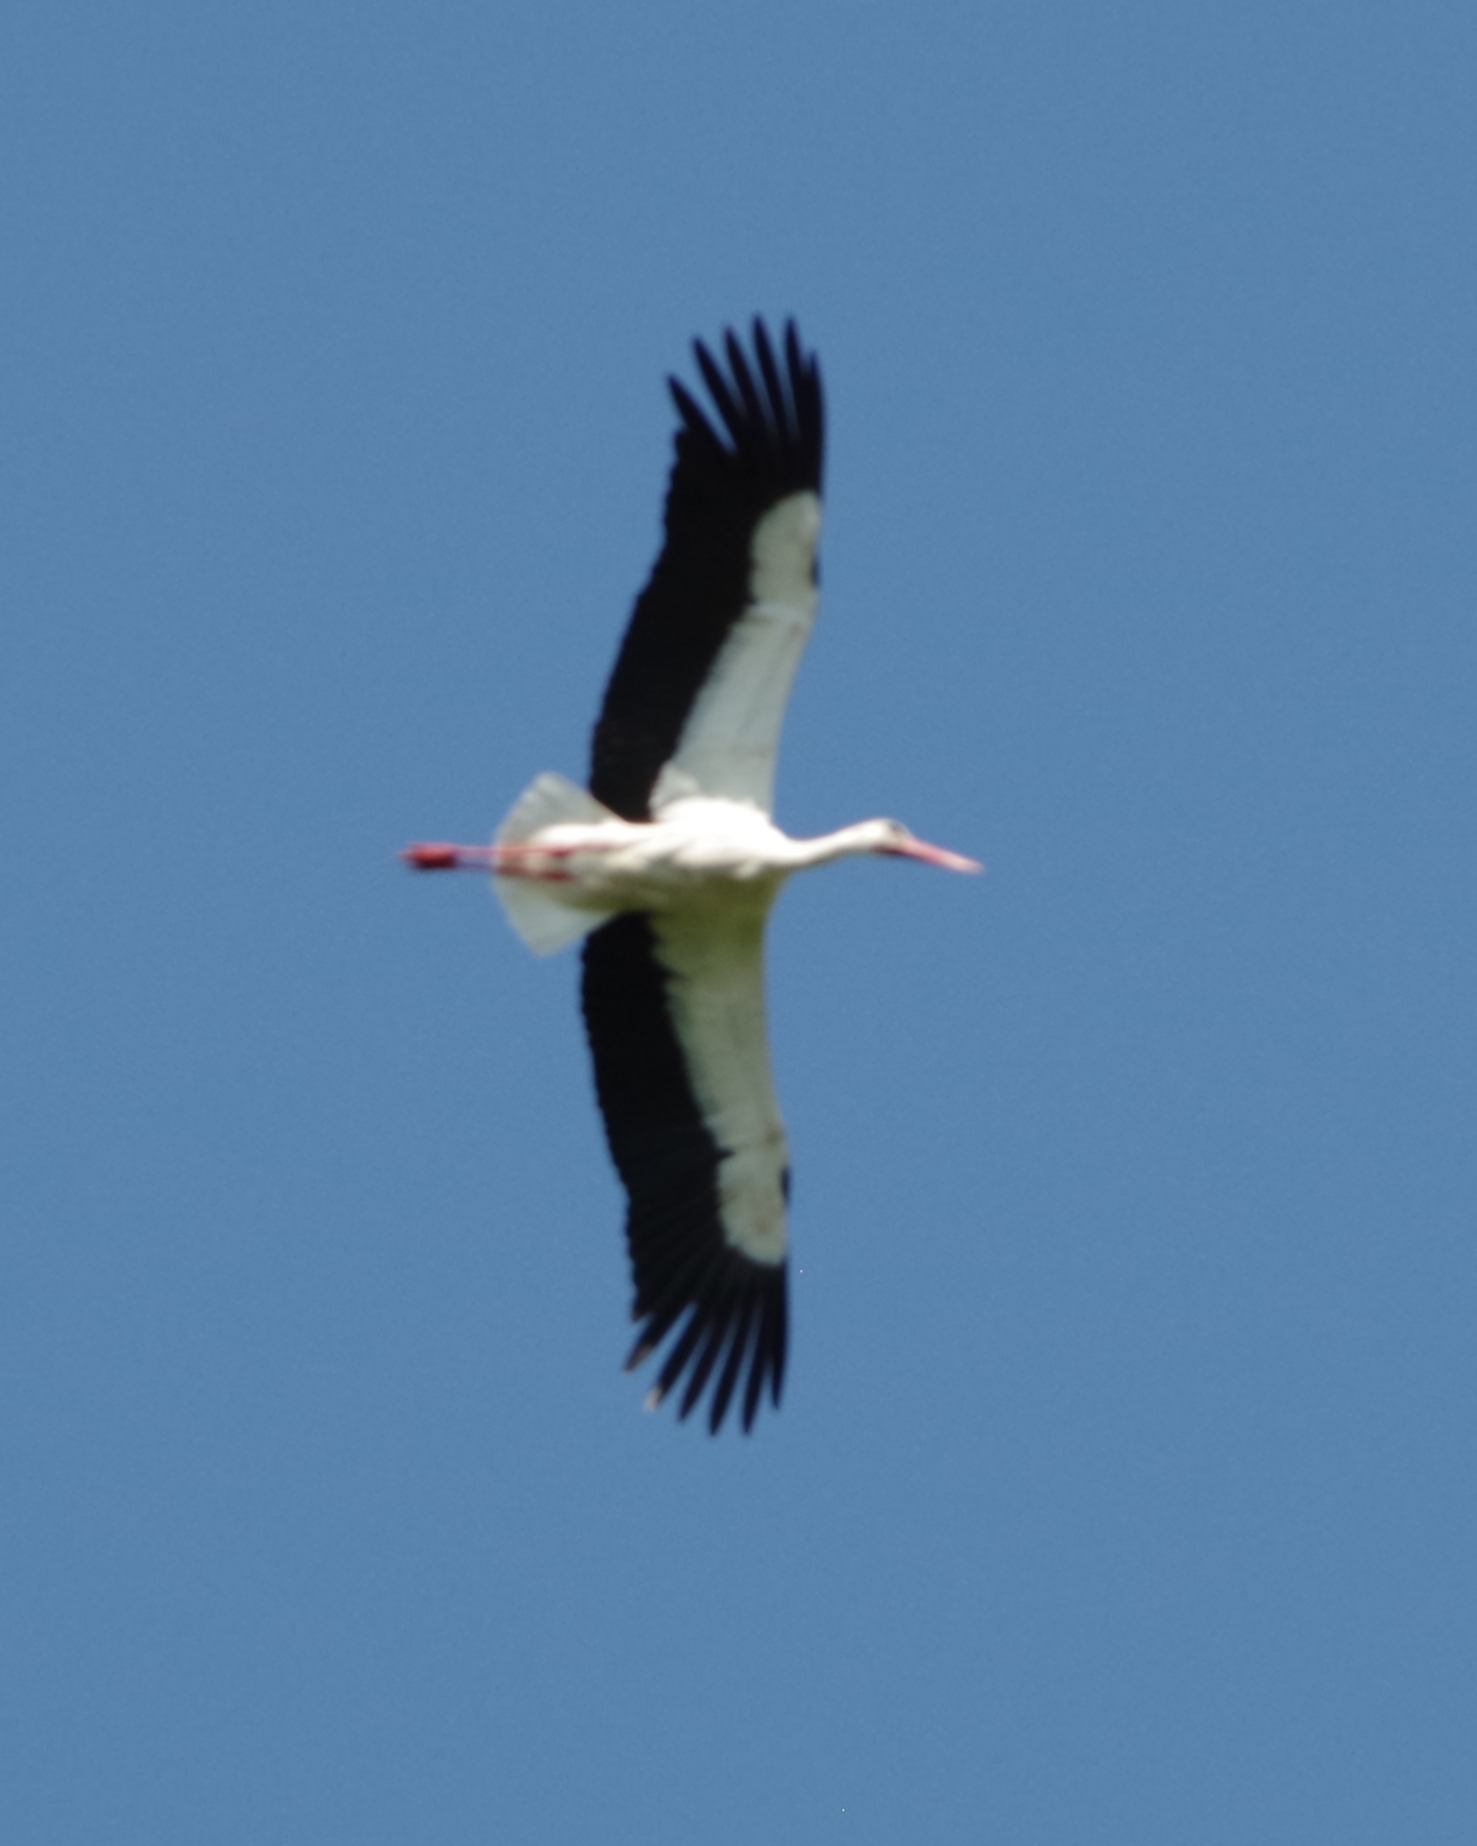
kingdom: Animalia
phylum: Chordata
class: Aves
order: Ciconiiformes
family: Ciconiidae
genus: Ciconia
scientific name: Ciconia ciconia
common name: White stork
